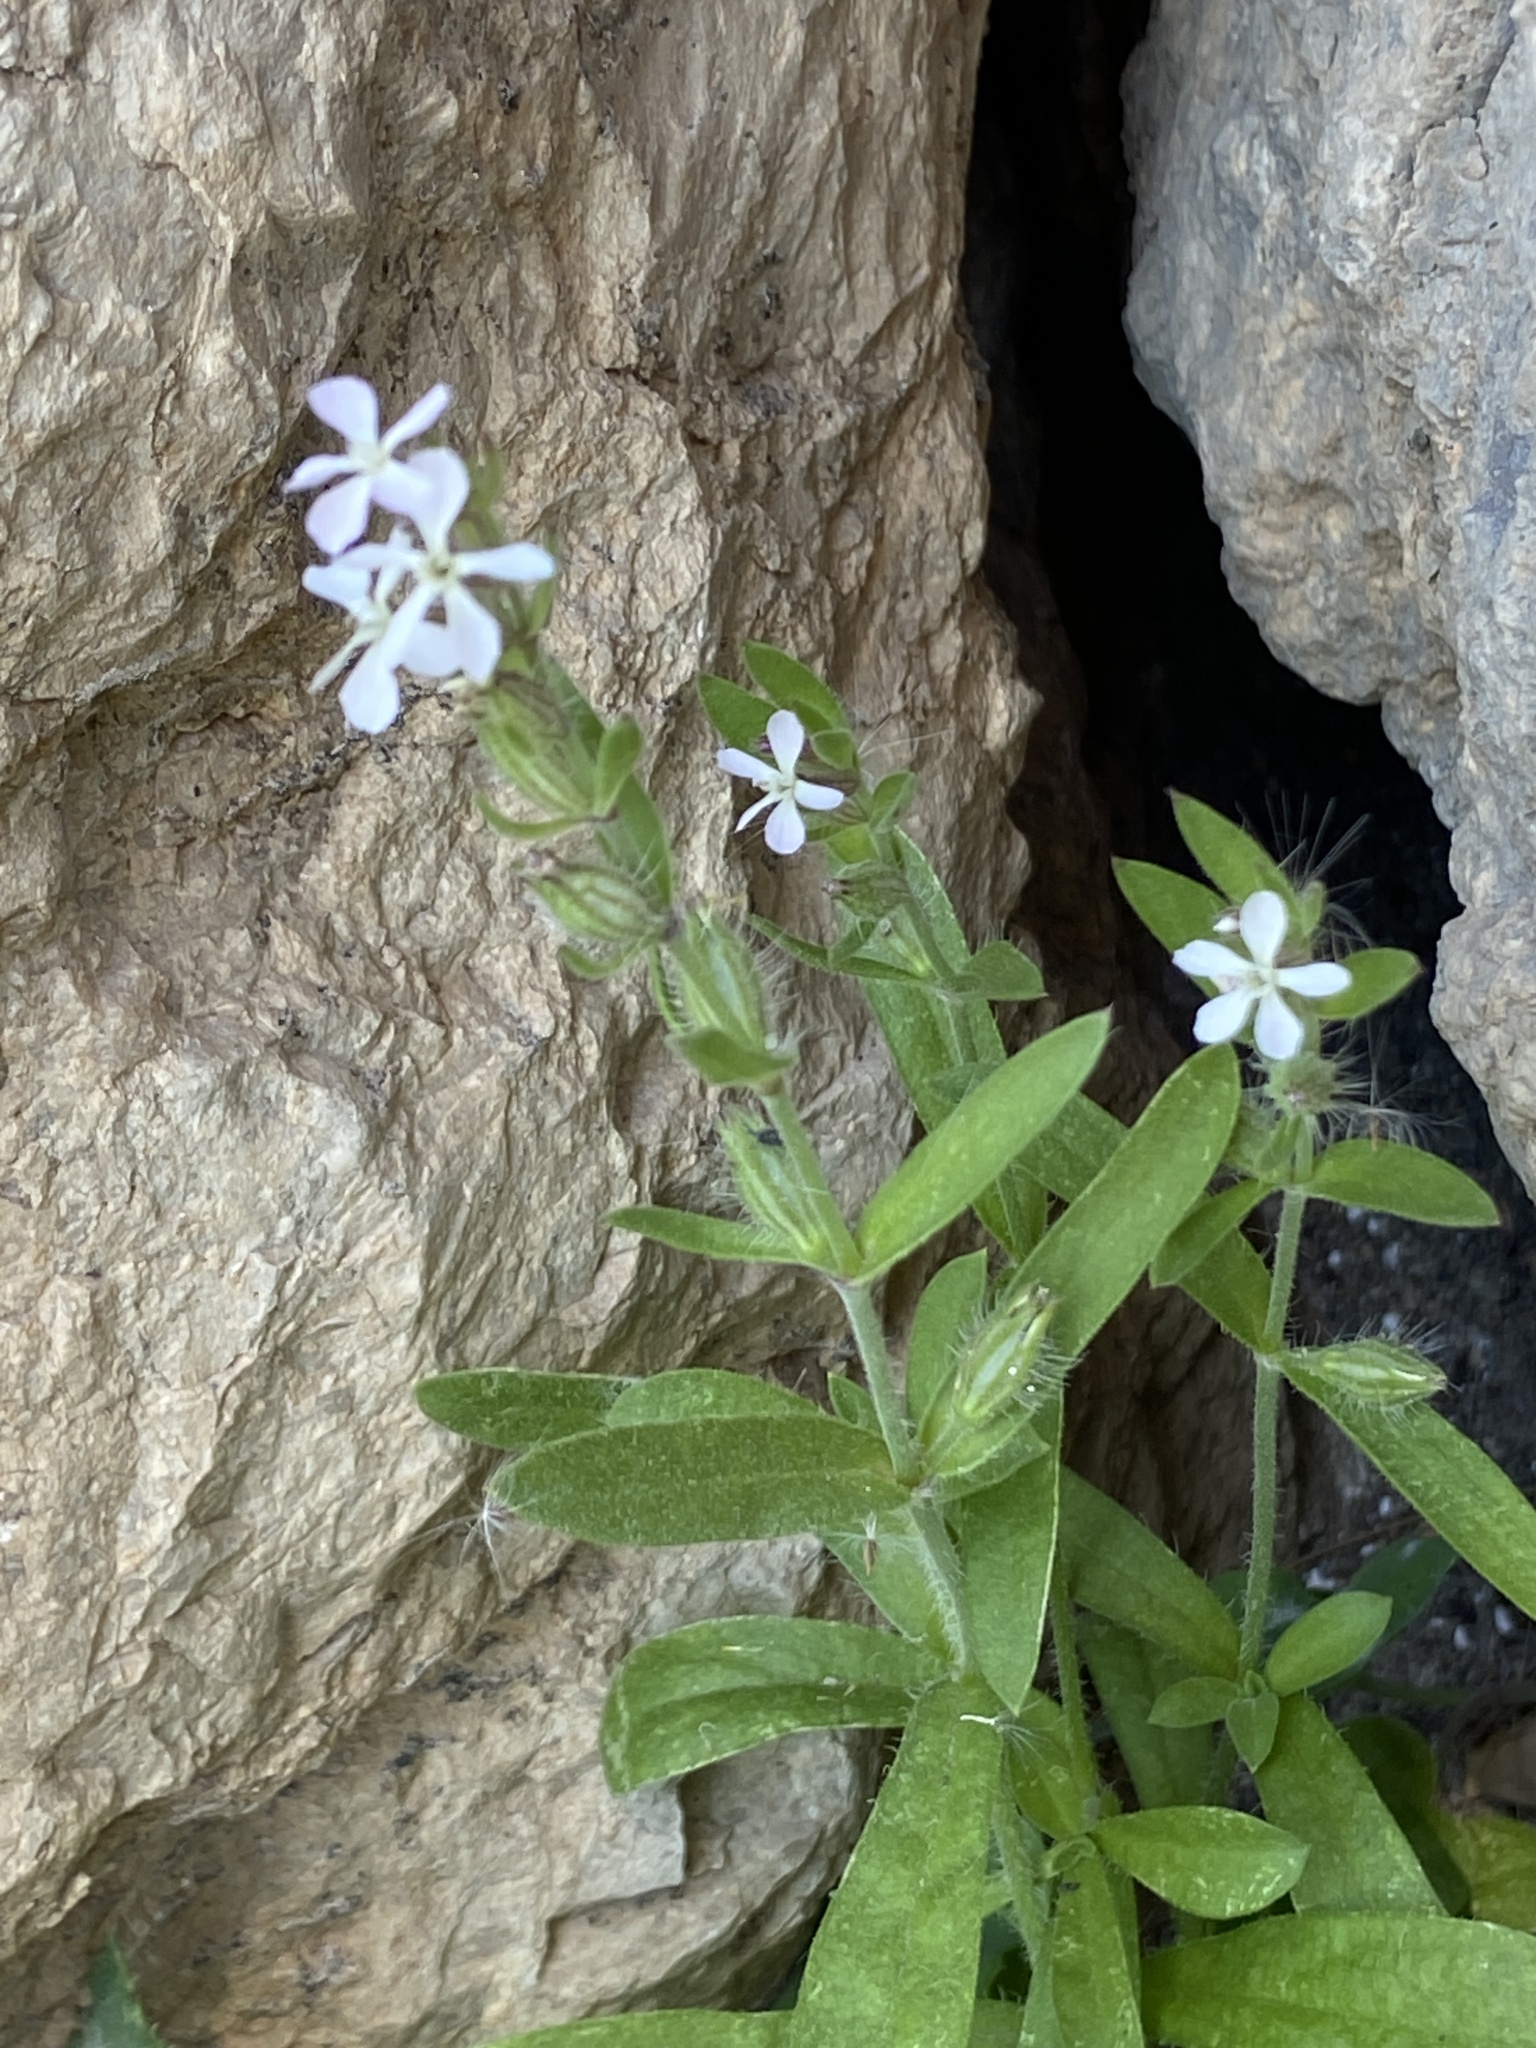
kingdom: Plantae
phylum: Tracheophyta
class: Magnoliopsida
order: Caryophyllales
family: Caryophyllaceae
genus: Silene
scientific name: Silene gallica
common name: Small-flowered catchfly
